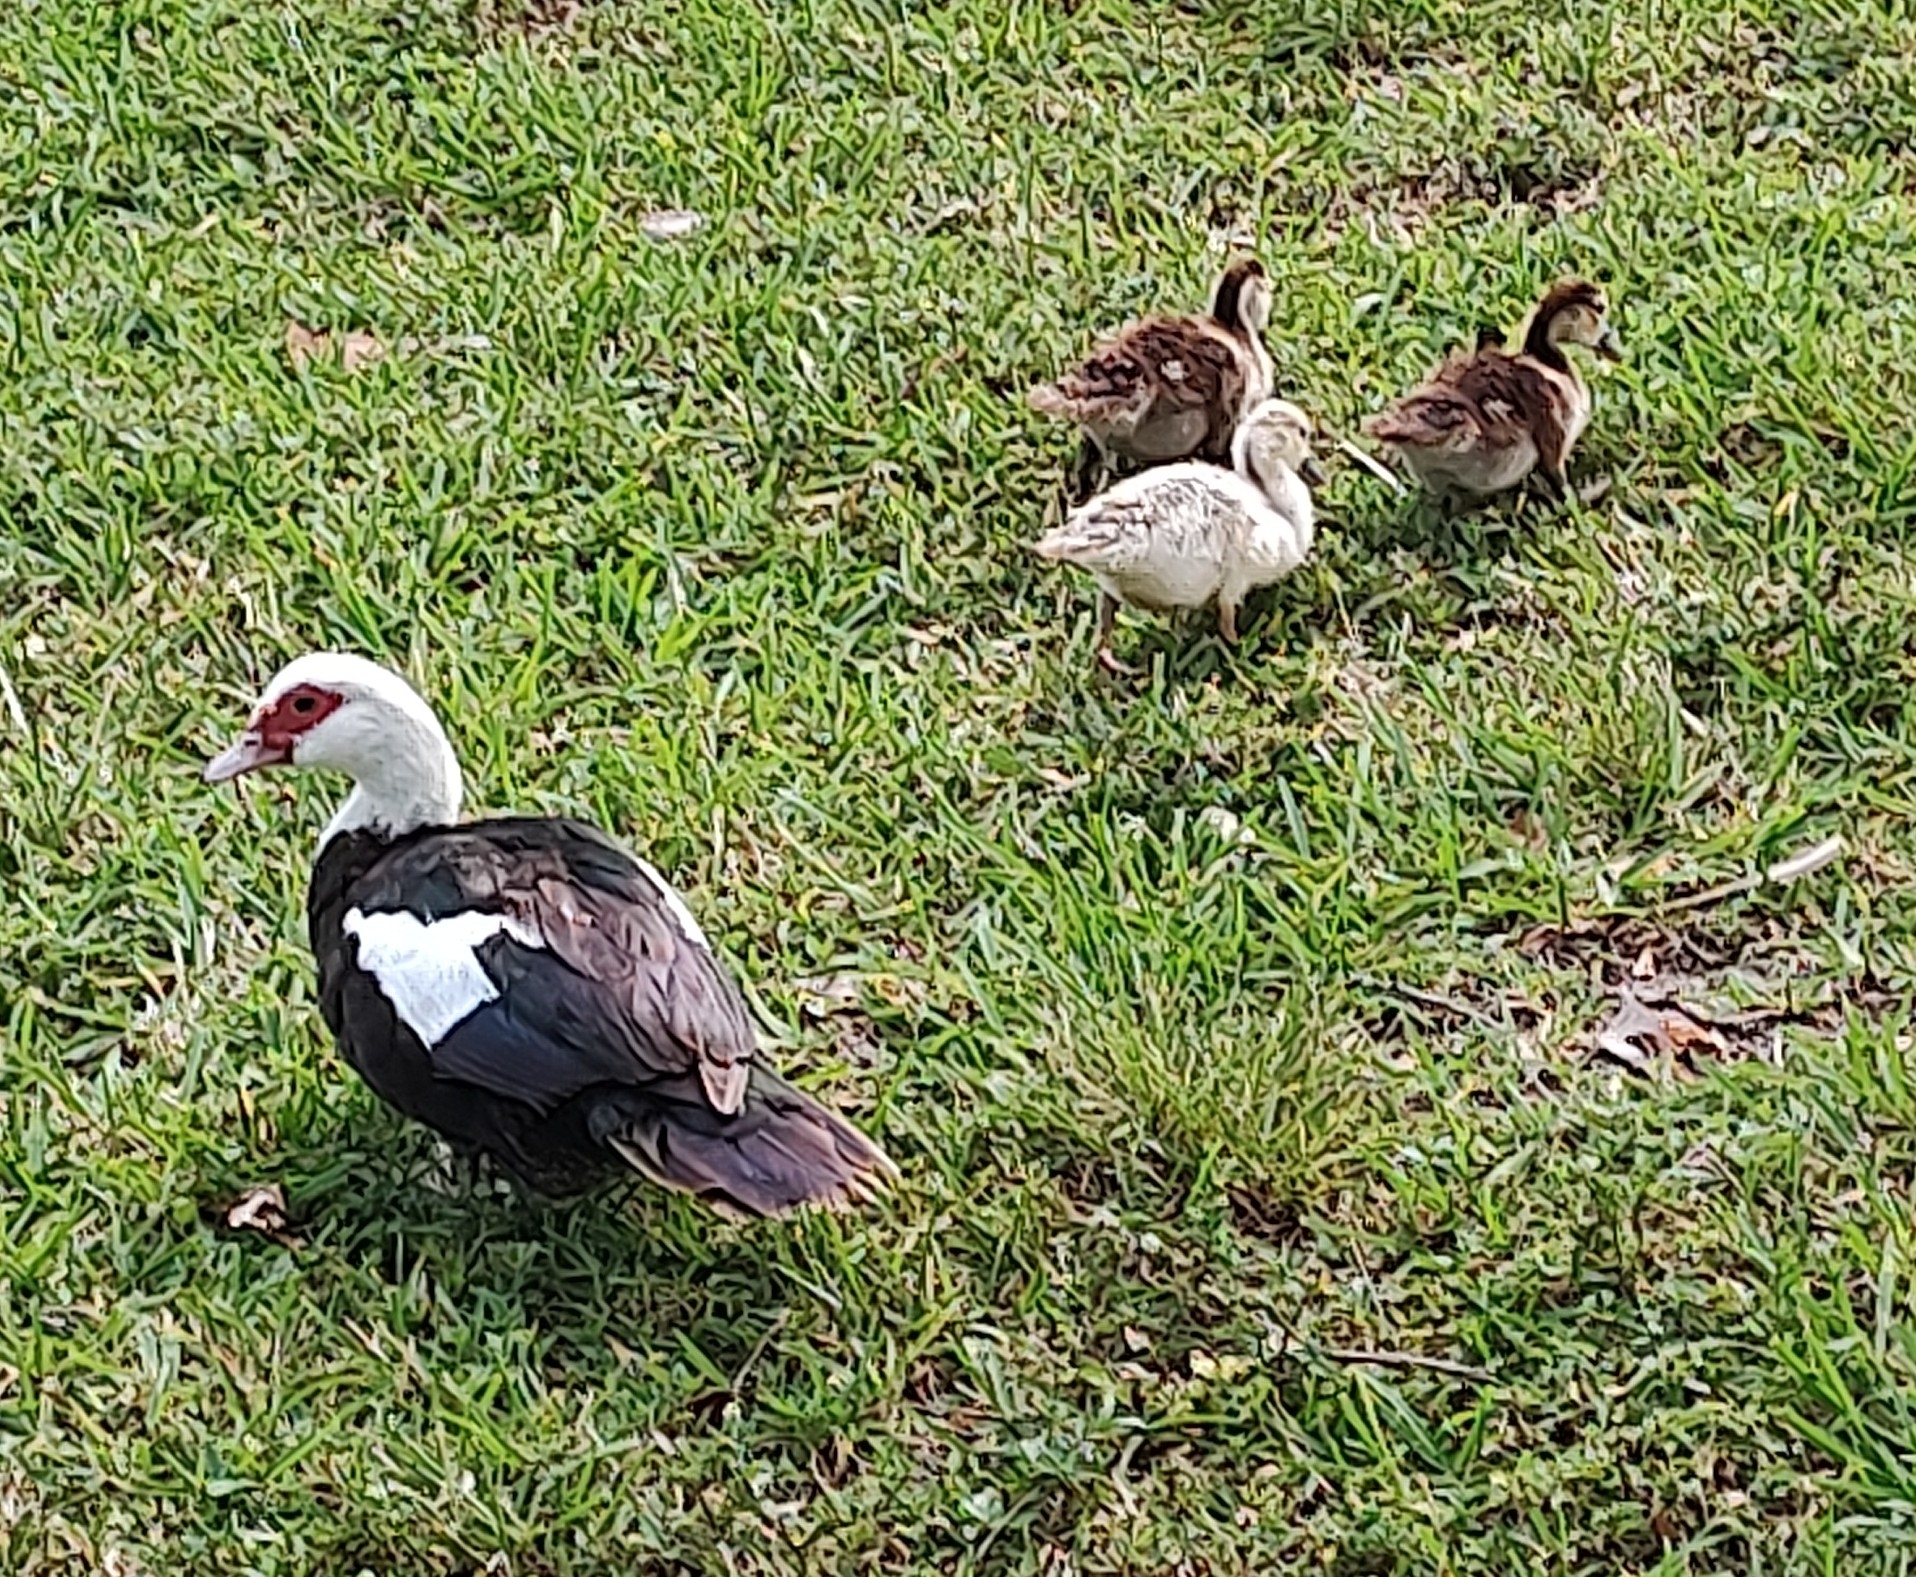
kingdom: Animalia
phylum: Chordata
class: Aves
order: Anseriformes
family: Anatidae
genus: Cairina
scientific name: Cairina moschata
